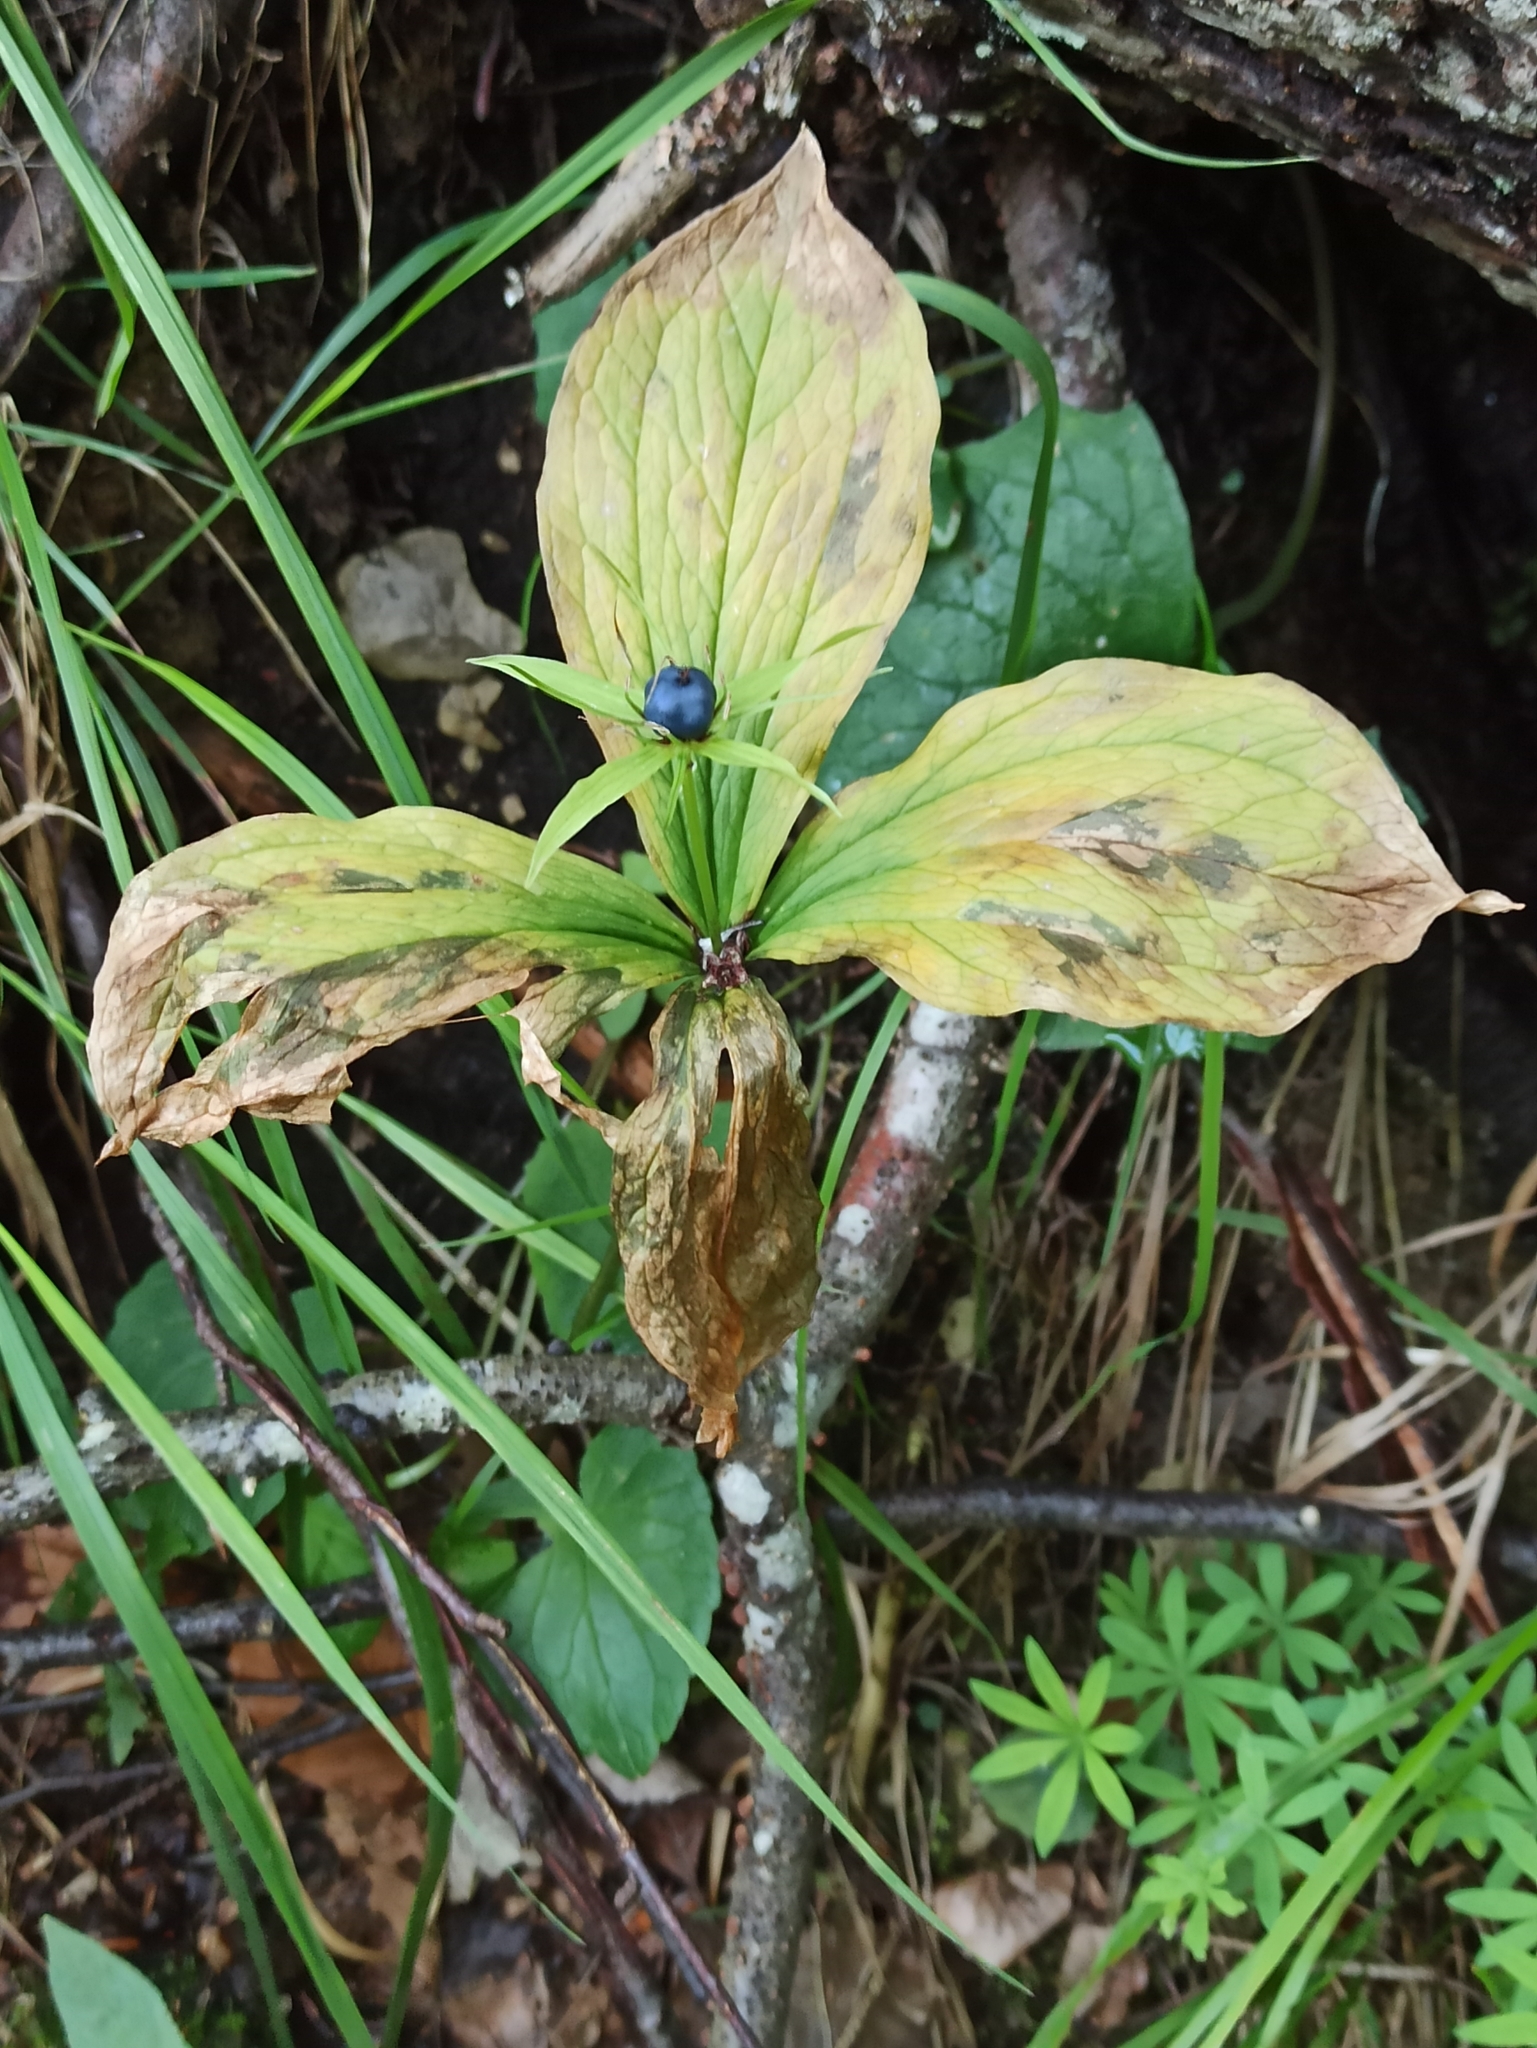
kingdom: Plantae
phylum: Tracheophyta
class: Liliopsida
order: Liliales
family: Melanthiaceae
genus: Paris
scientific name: Paris quadrifolia
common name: Herb-paris
